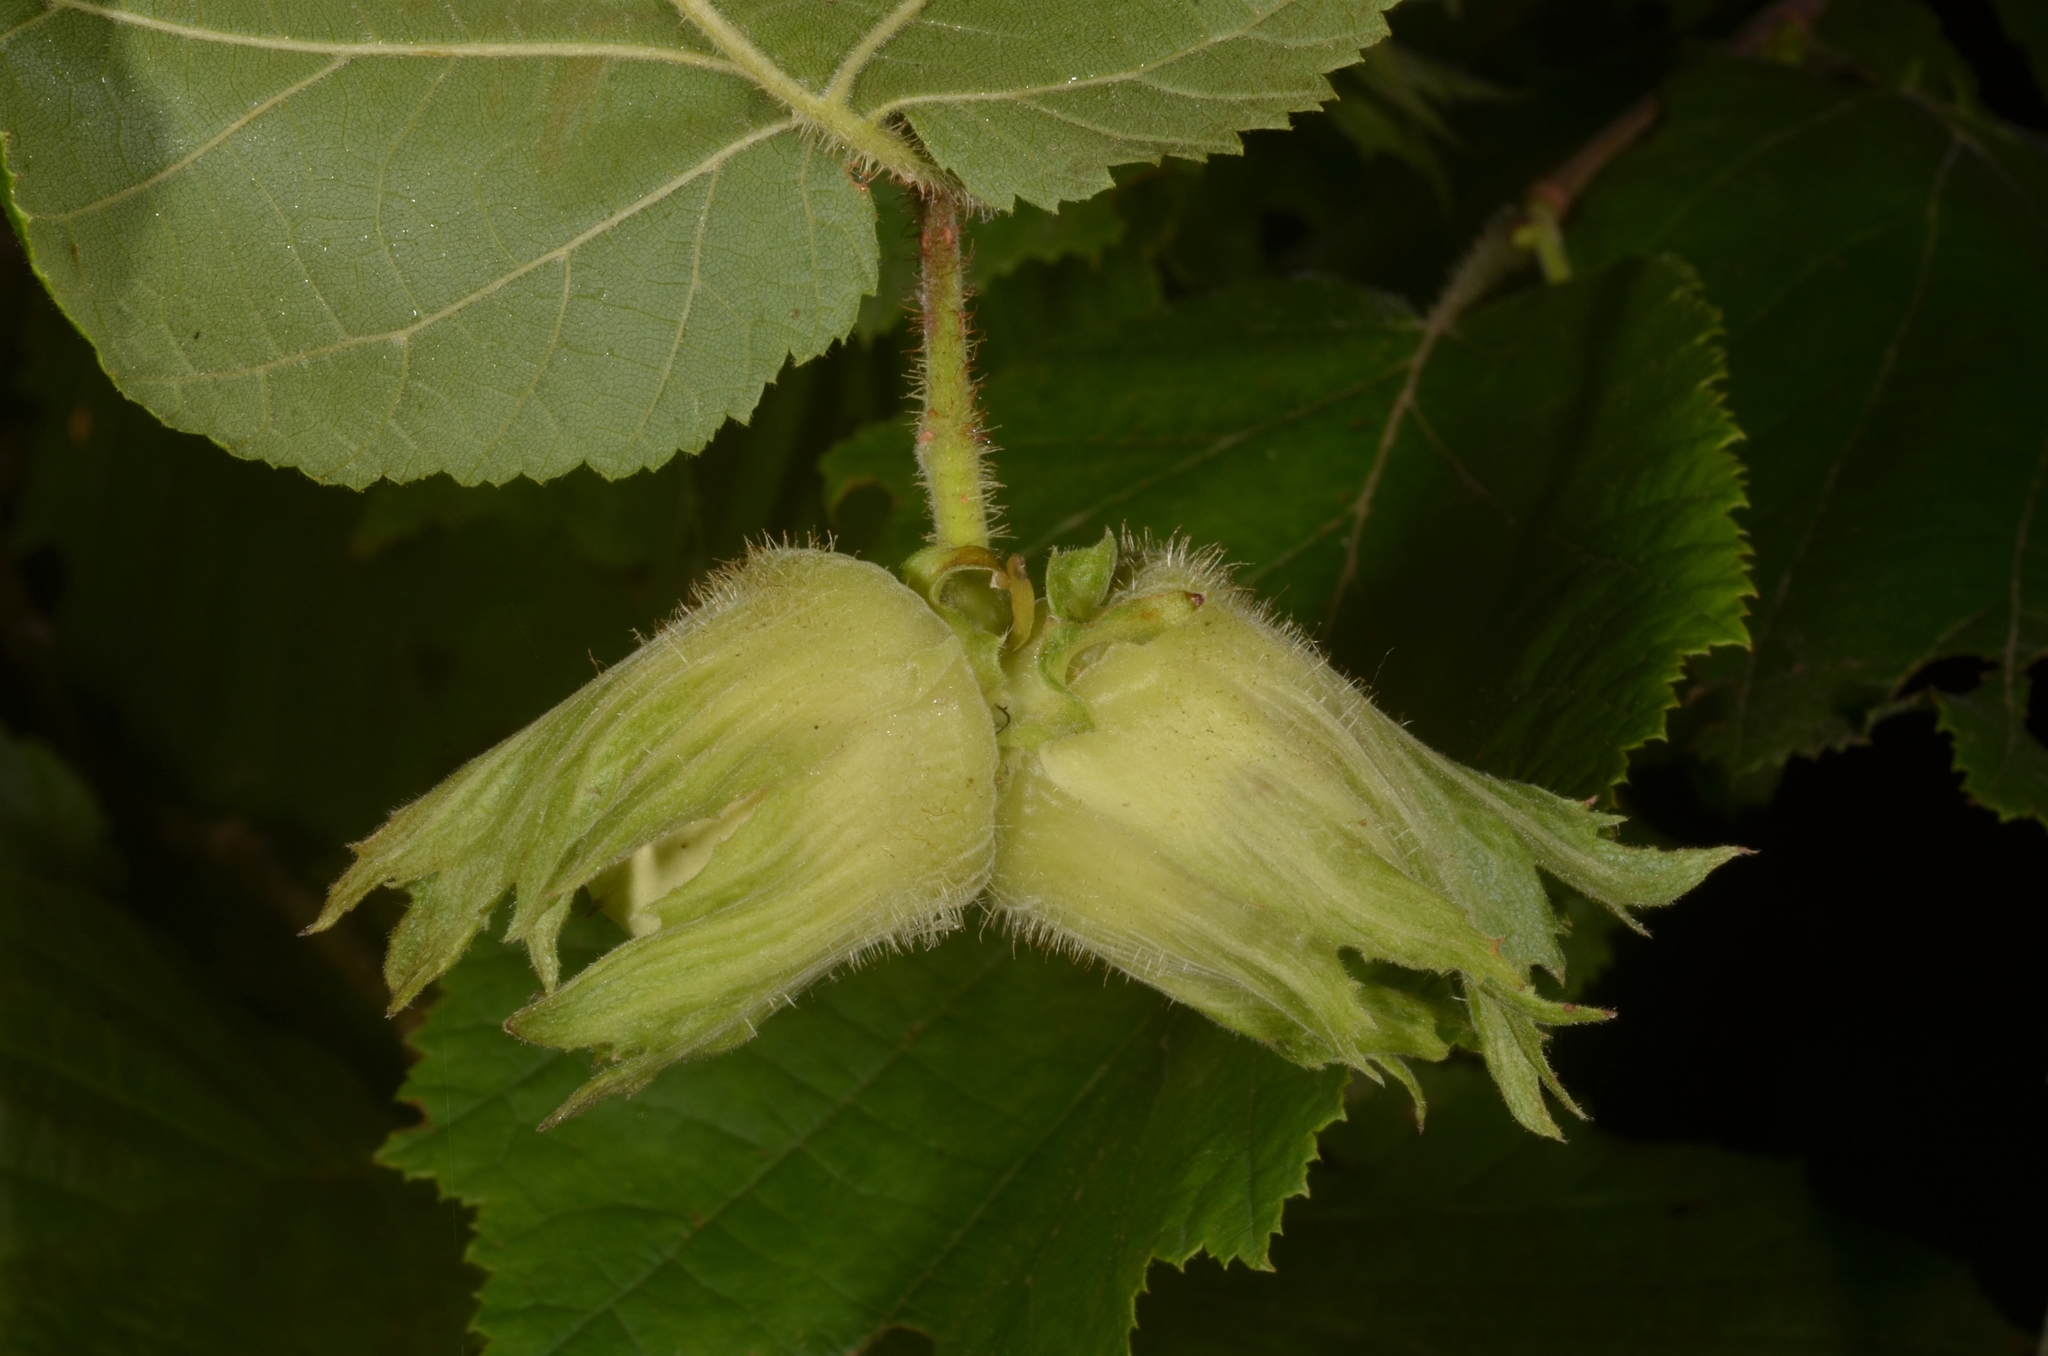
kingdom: Plantae
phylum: Tracheophyta
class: Magnoliopsida
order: Fagales
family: Betulaceae
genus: Corylus
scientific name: Corylus avellana
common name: European hazel
